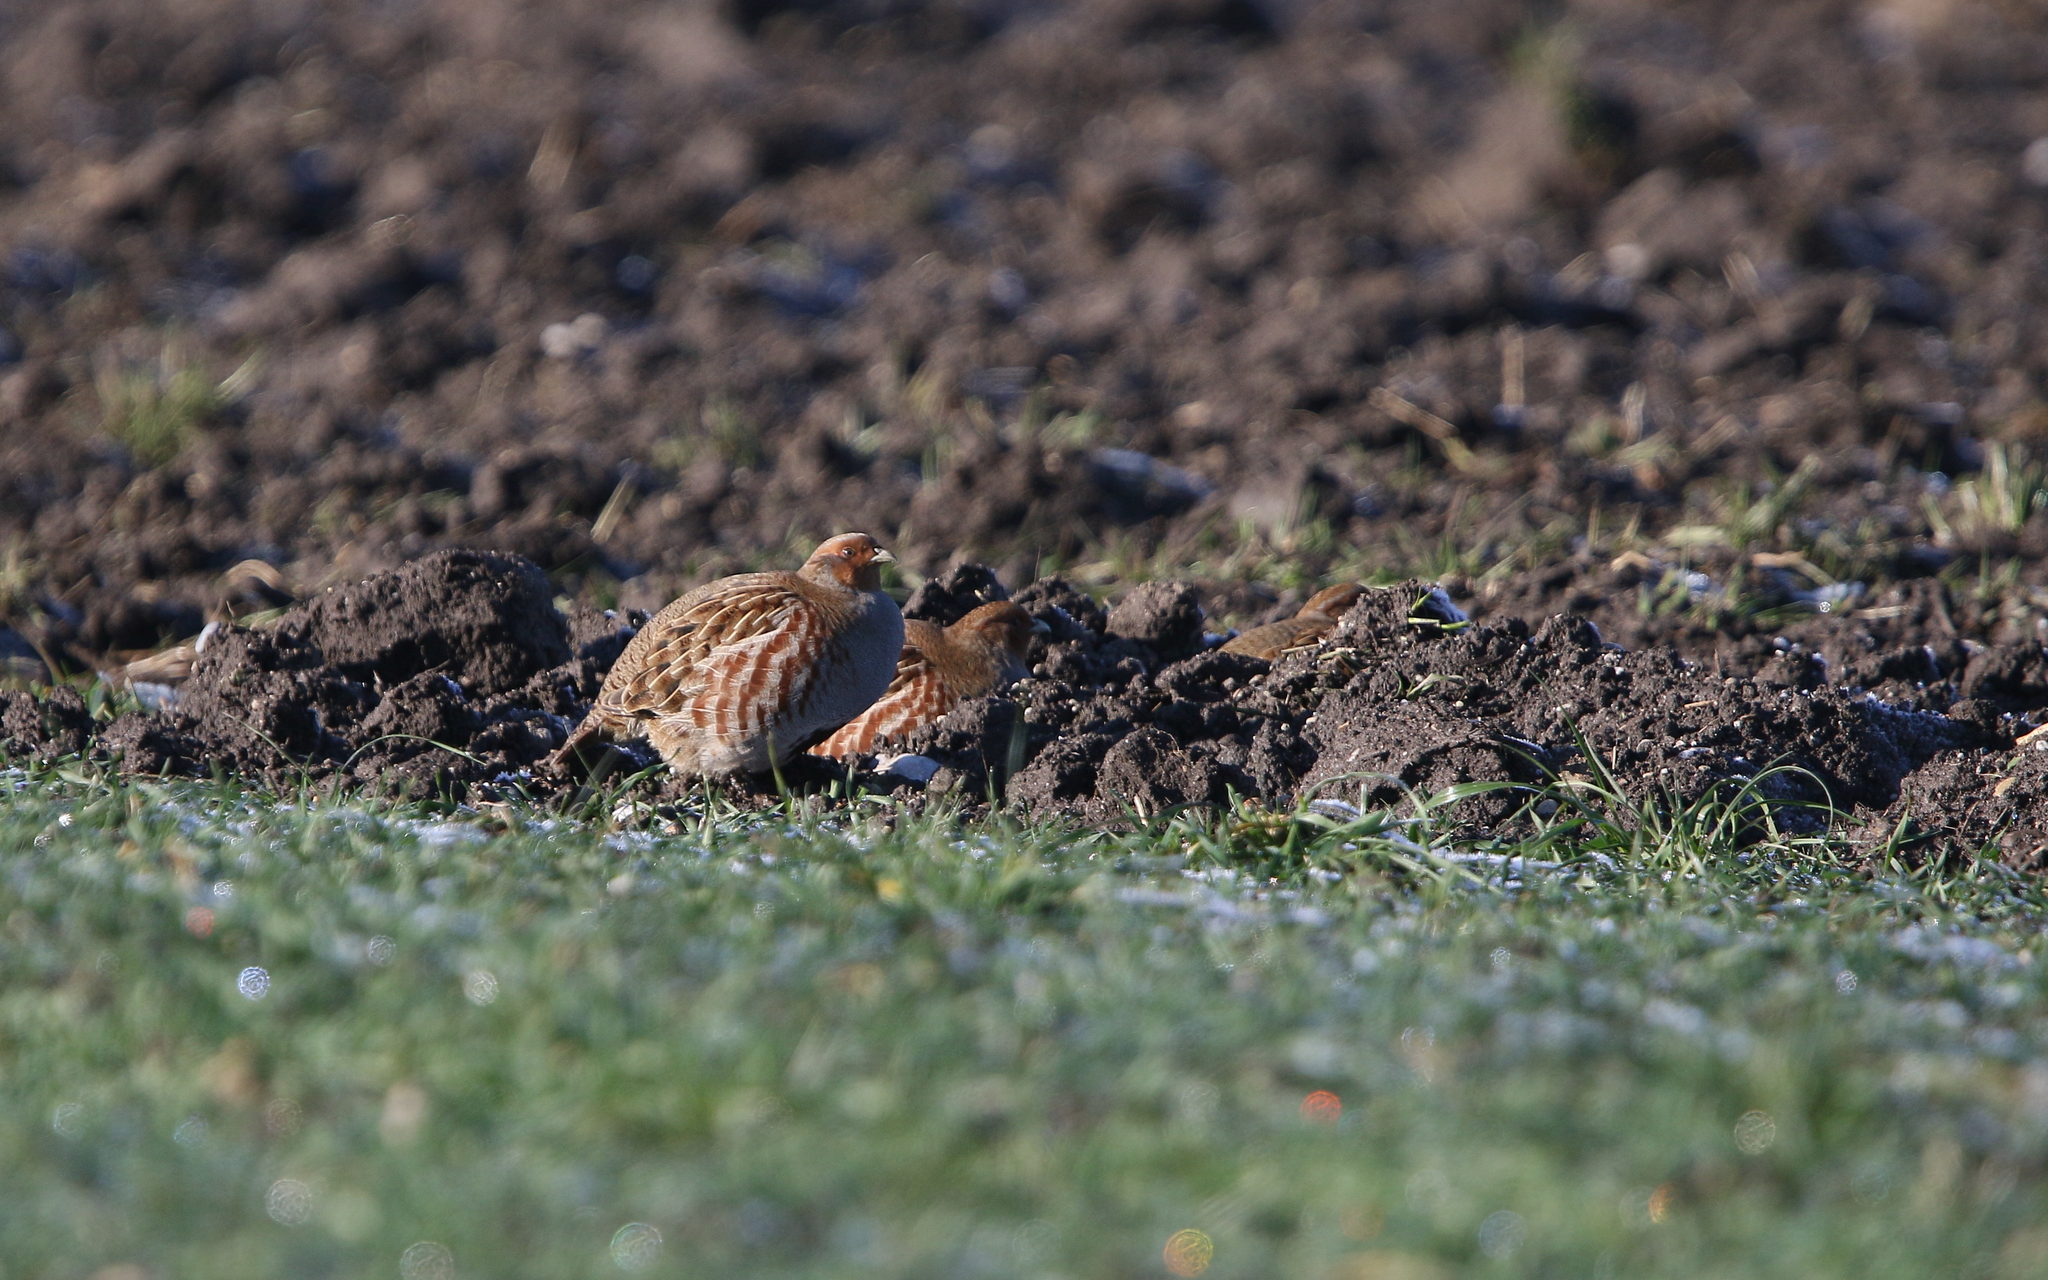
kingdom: Animalia
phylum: Chordata
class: Aves
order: Galliformes
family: Phasianidae
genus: Perdix
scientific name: Perdix perdix
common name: Grey partridge
